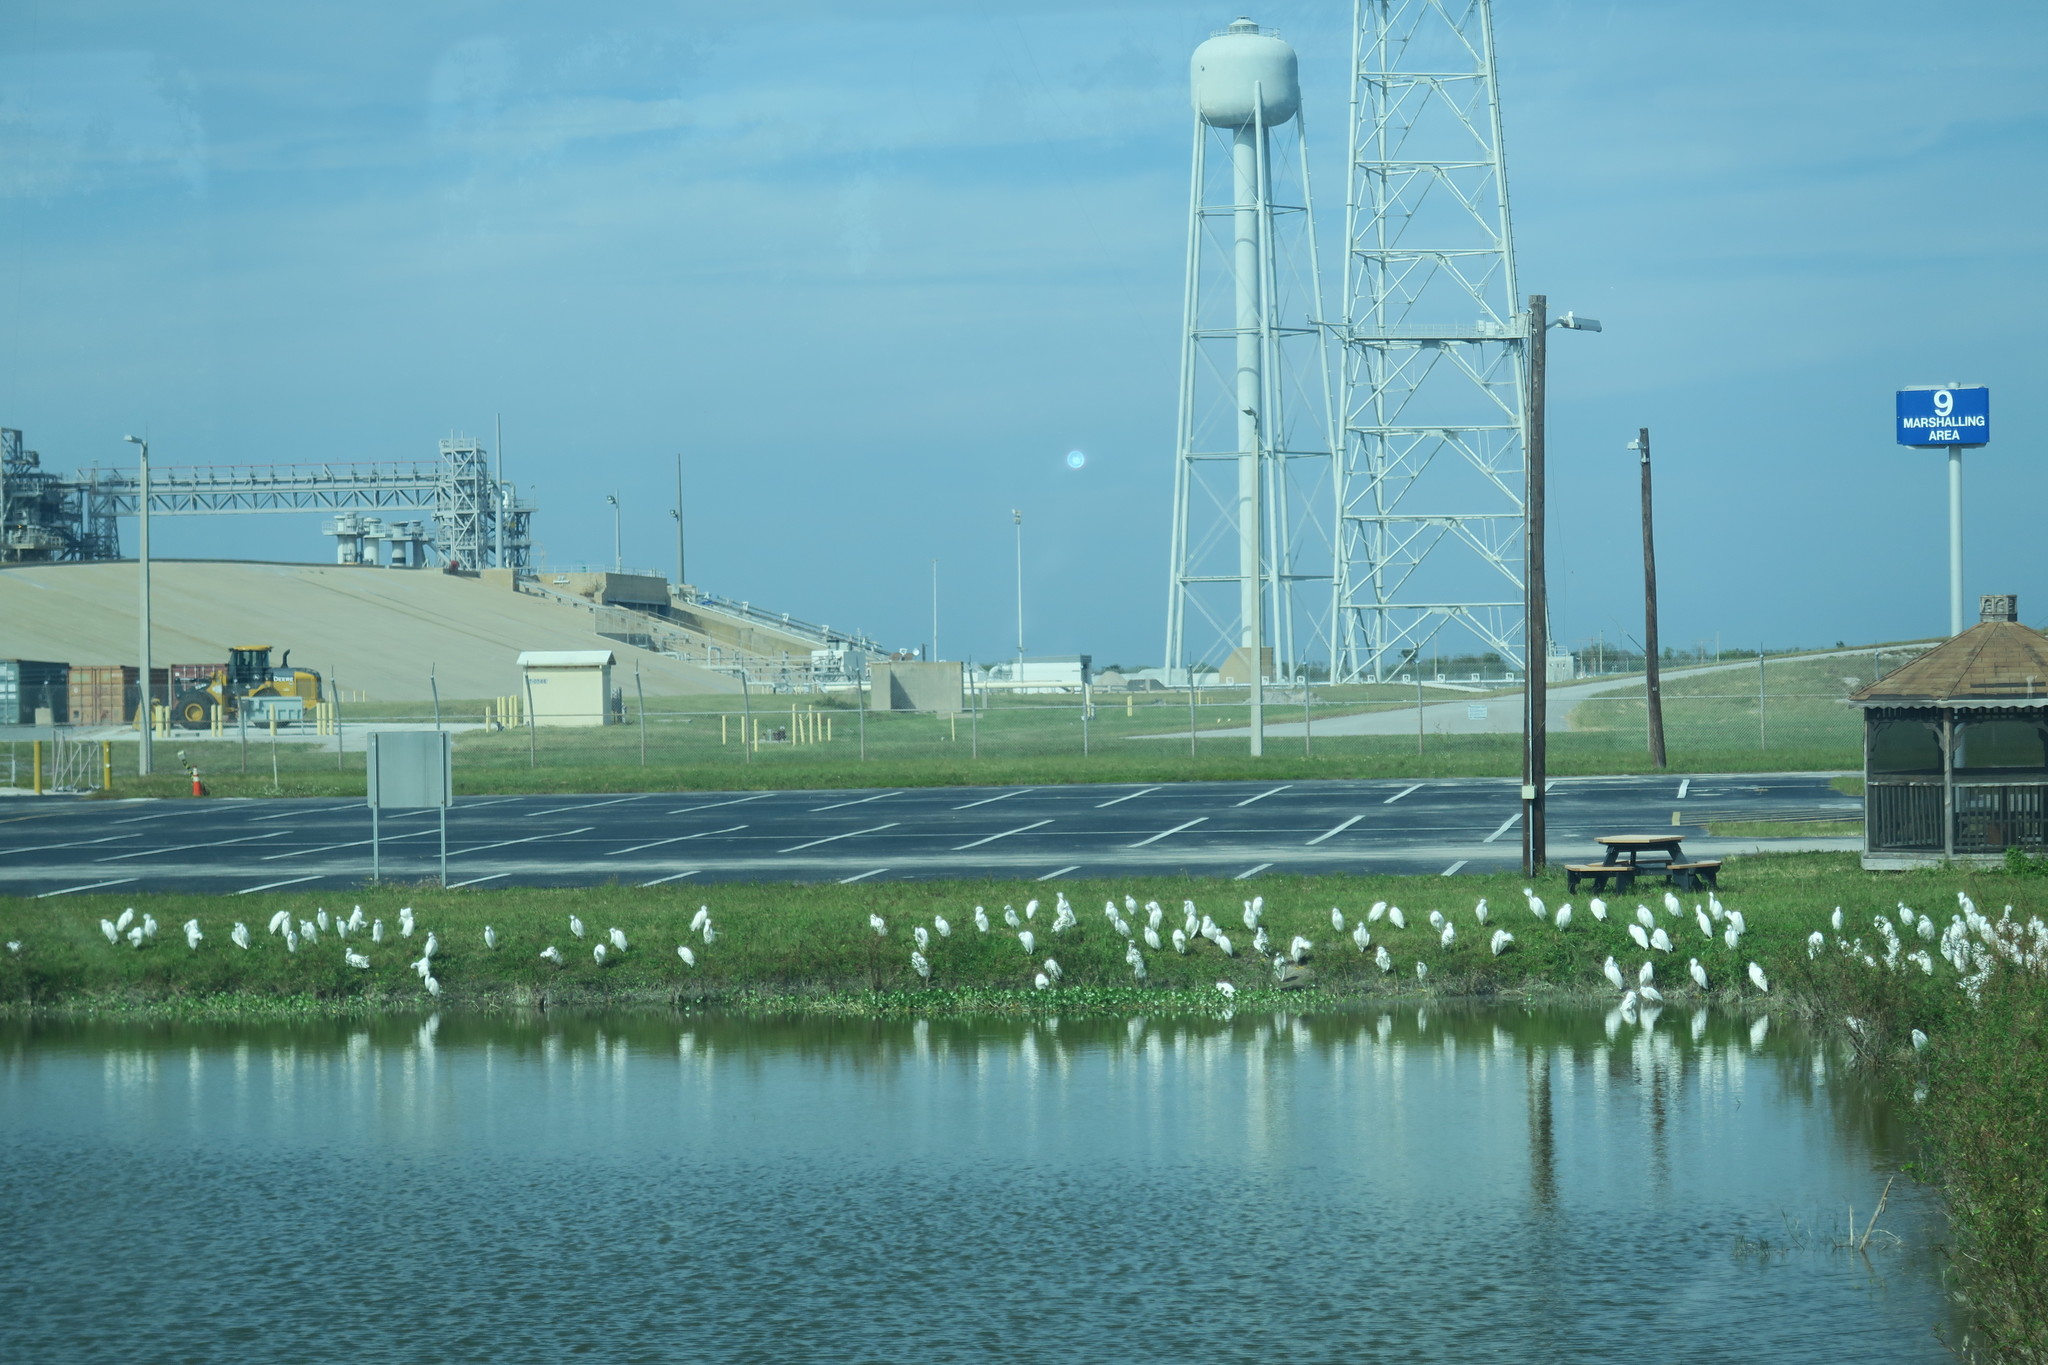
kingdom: Animalia
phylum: Chordata
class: Aves
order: Pelecaniformes
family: Ardeidae
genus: Egretta
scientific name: Egretta thula
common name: Snowy egret
